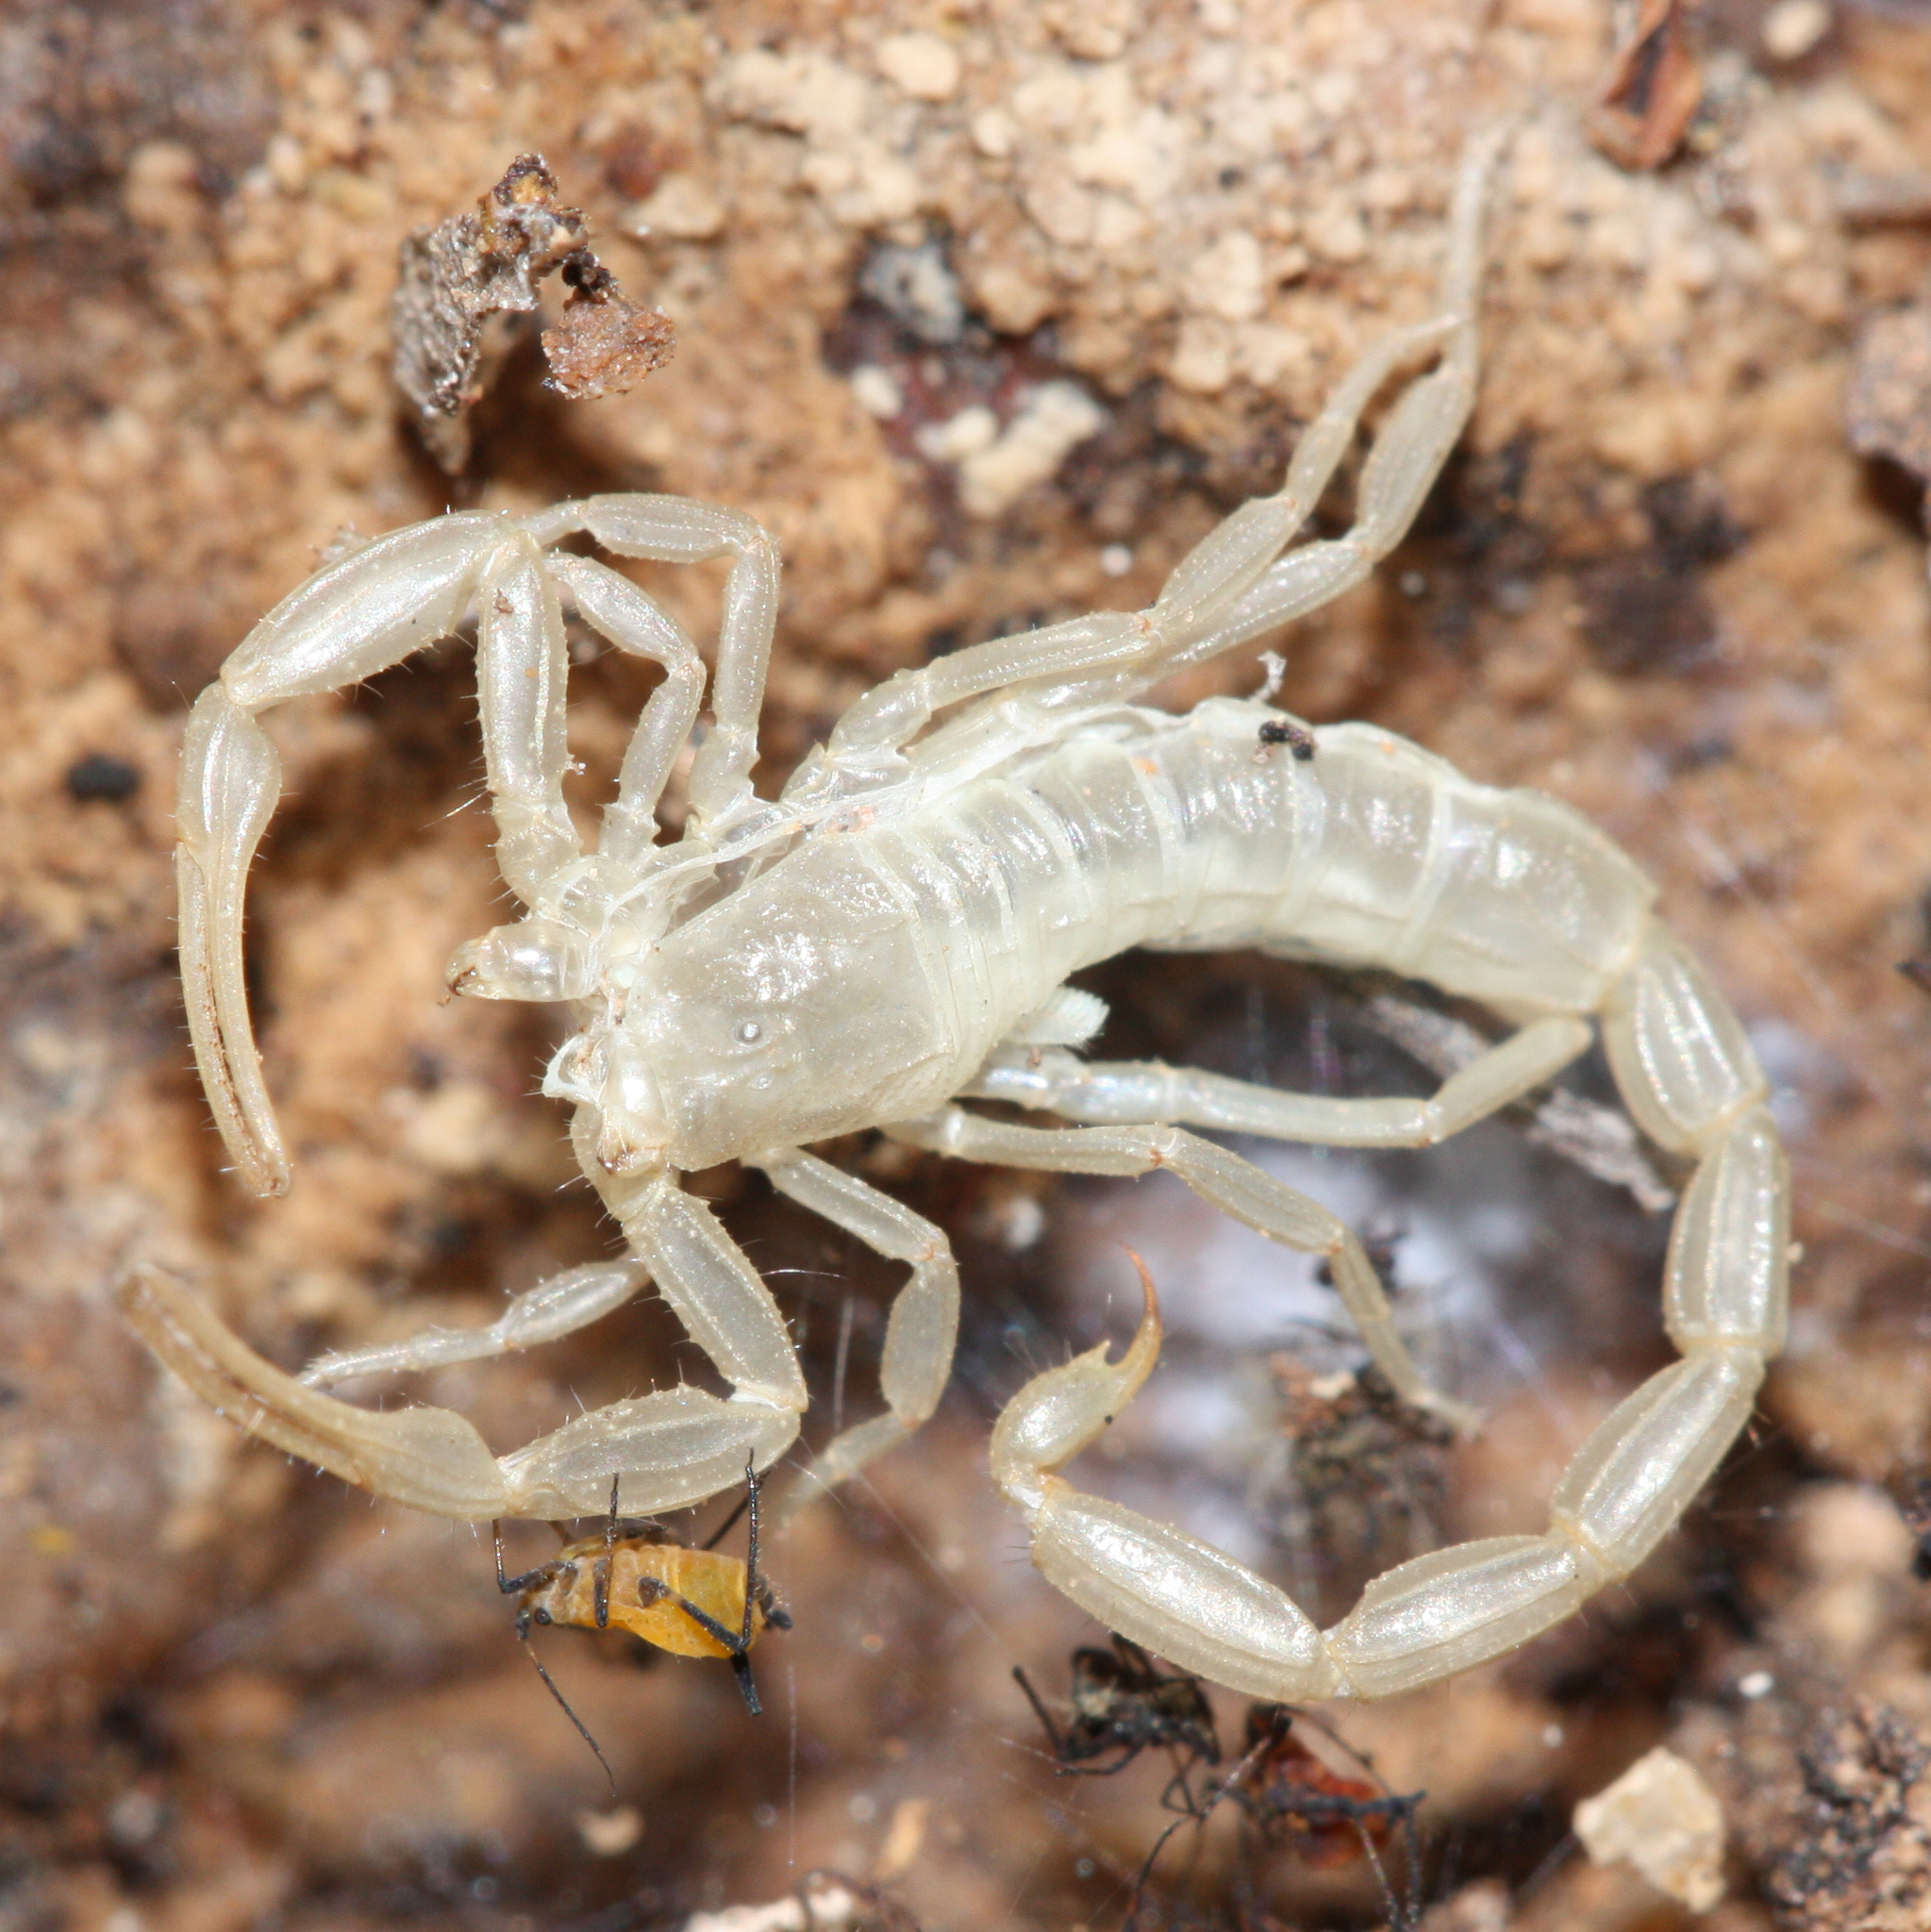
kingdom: Animalia
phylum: Arthropoda
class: Arachnida
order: Scorpiones
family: Buthidae
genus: Centruroides
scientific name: Centruroides sculpturatus
